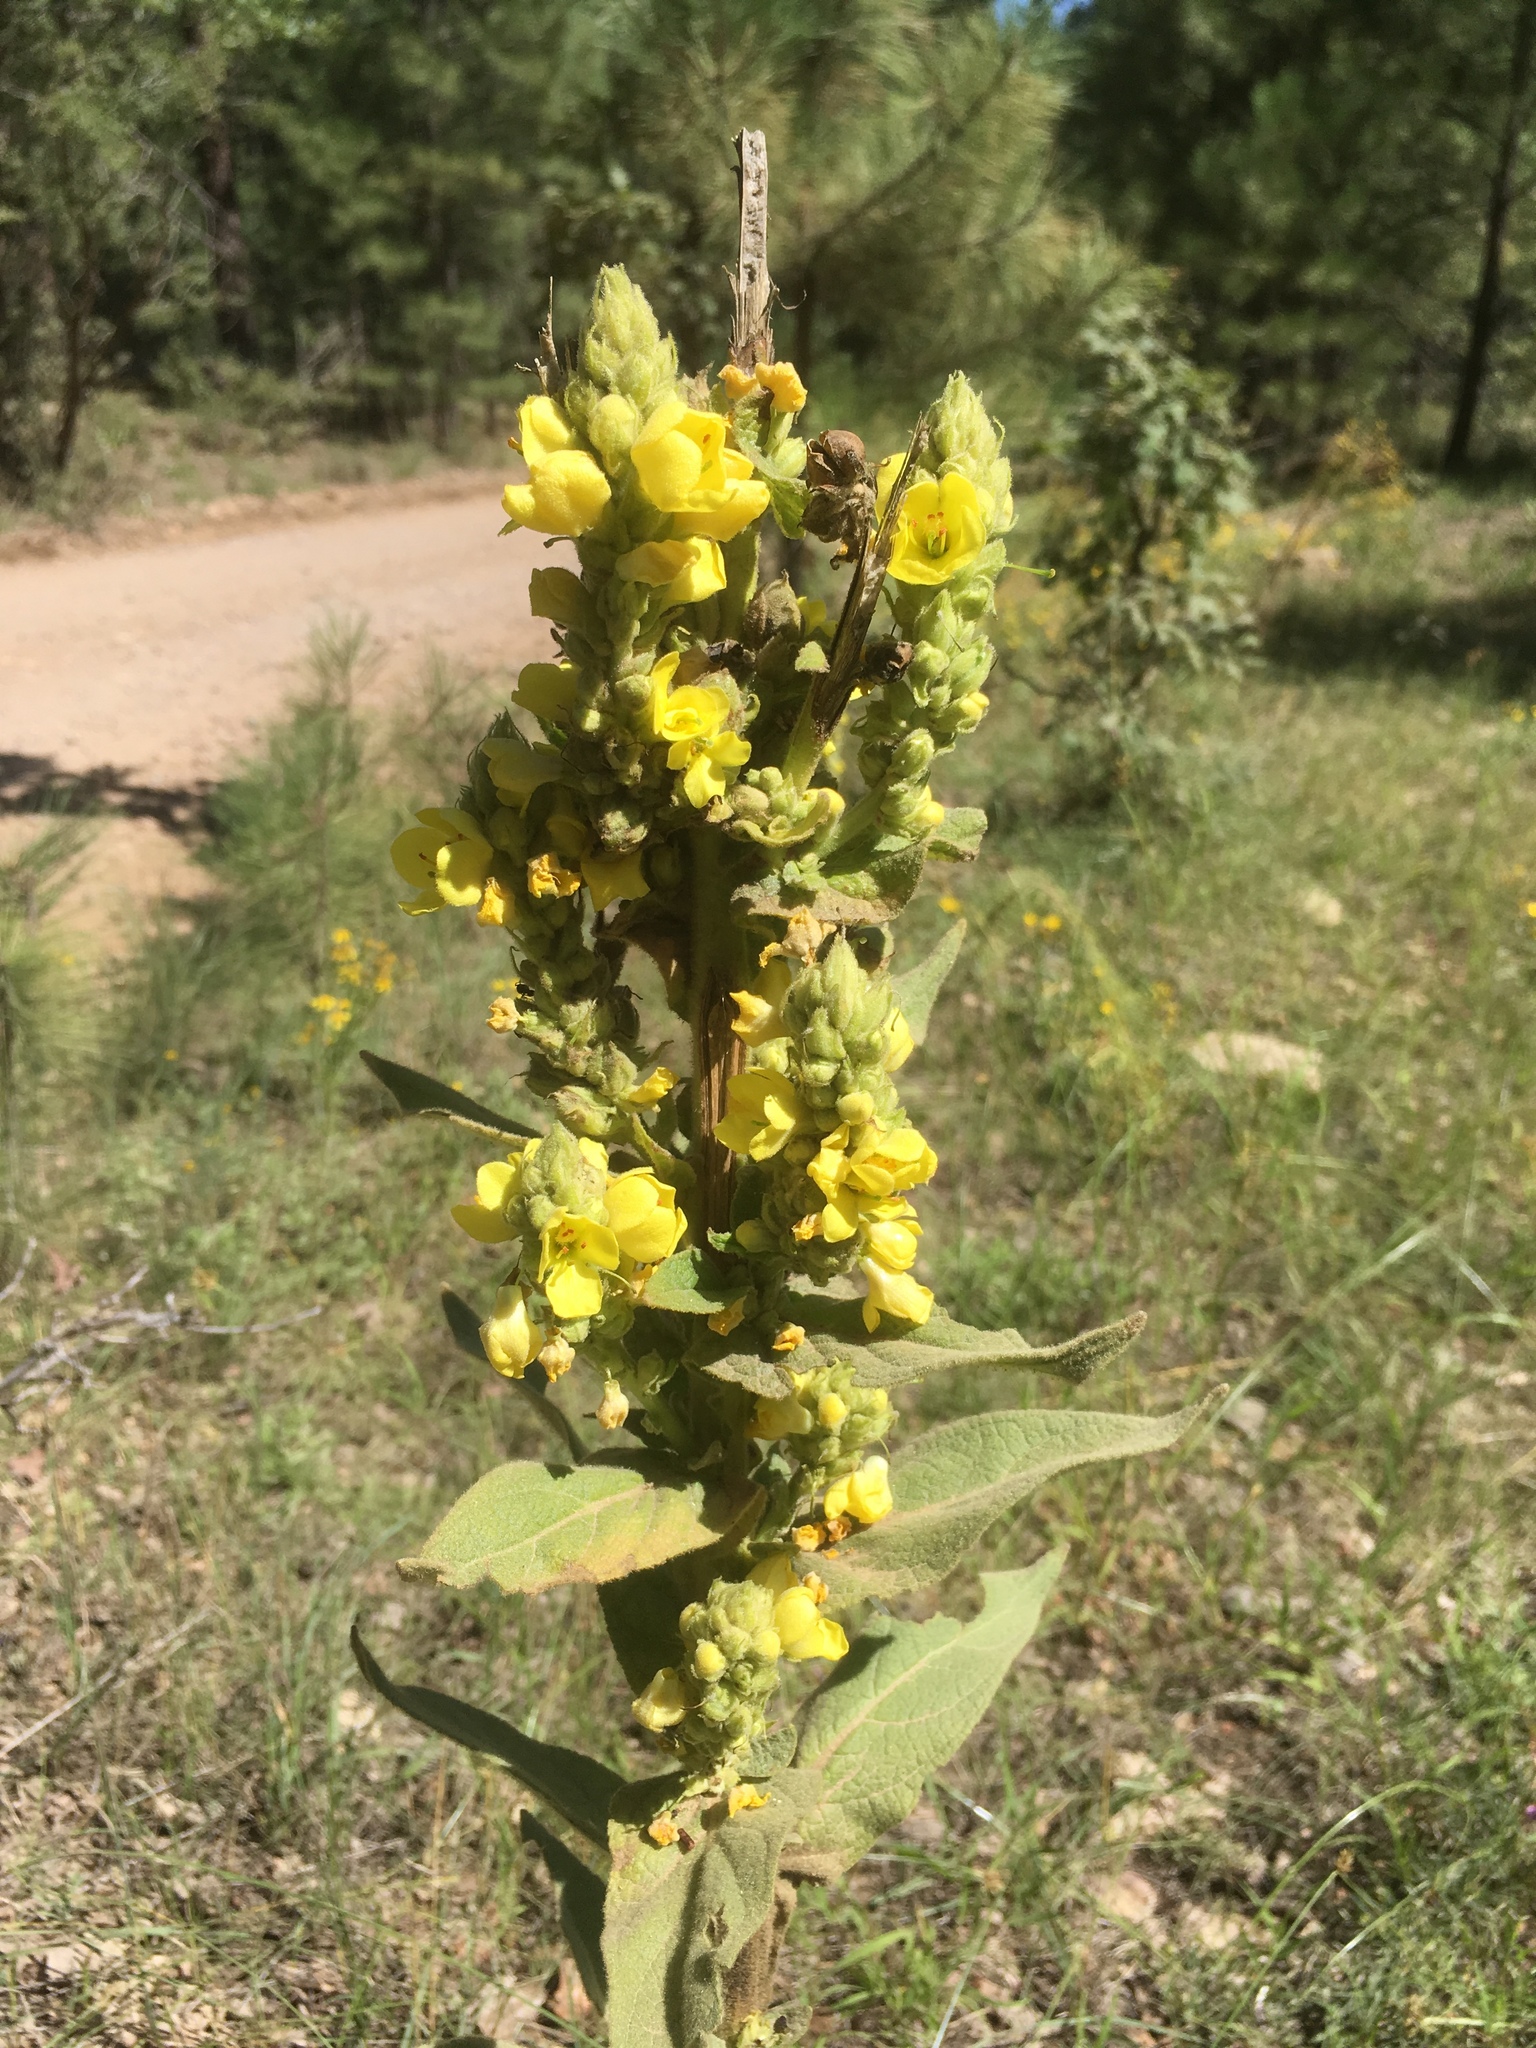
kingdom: Plantae
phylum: Tracheophyta
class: Magnoliopsida
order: Lamiales
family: Scrophulariaceae
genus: Verbascum
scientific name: Verbascum thapsus
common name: Common mullein
